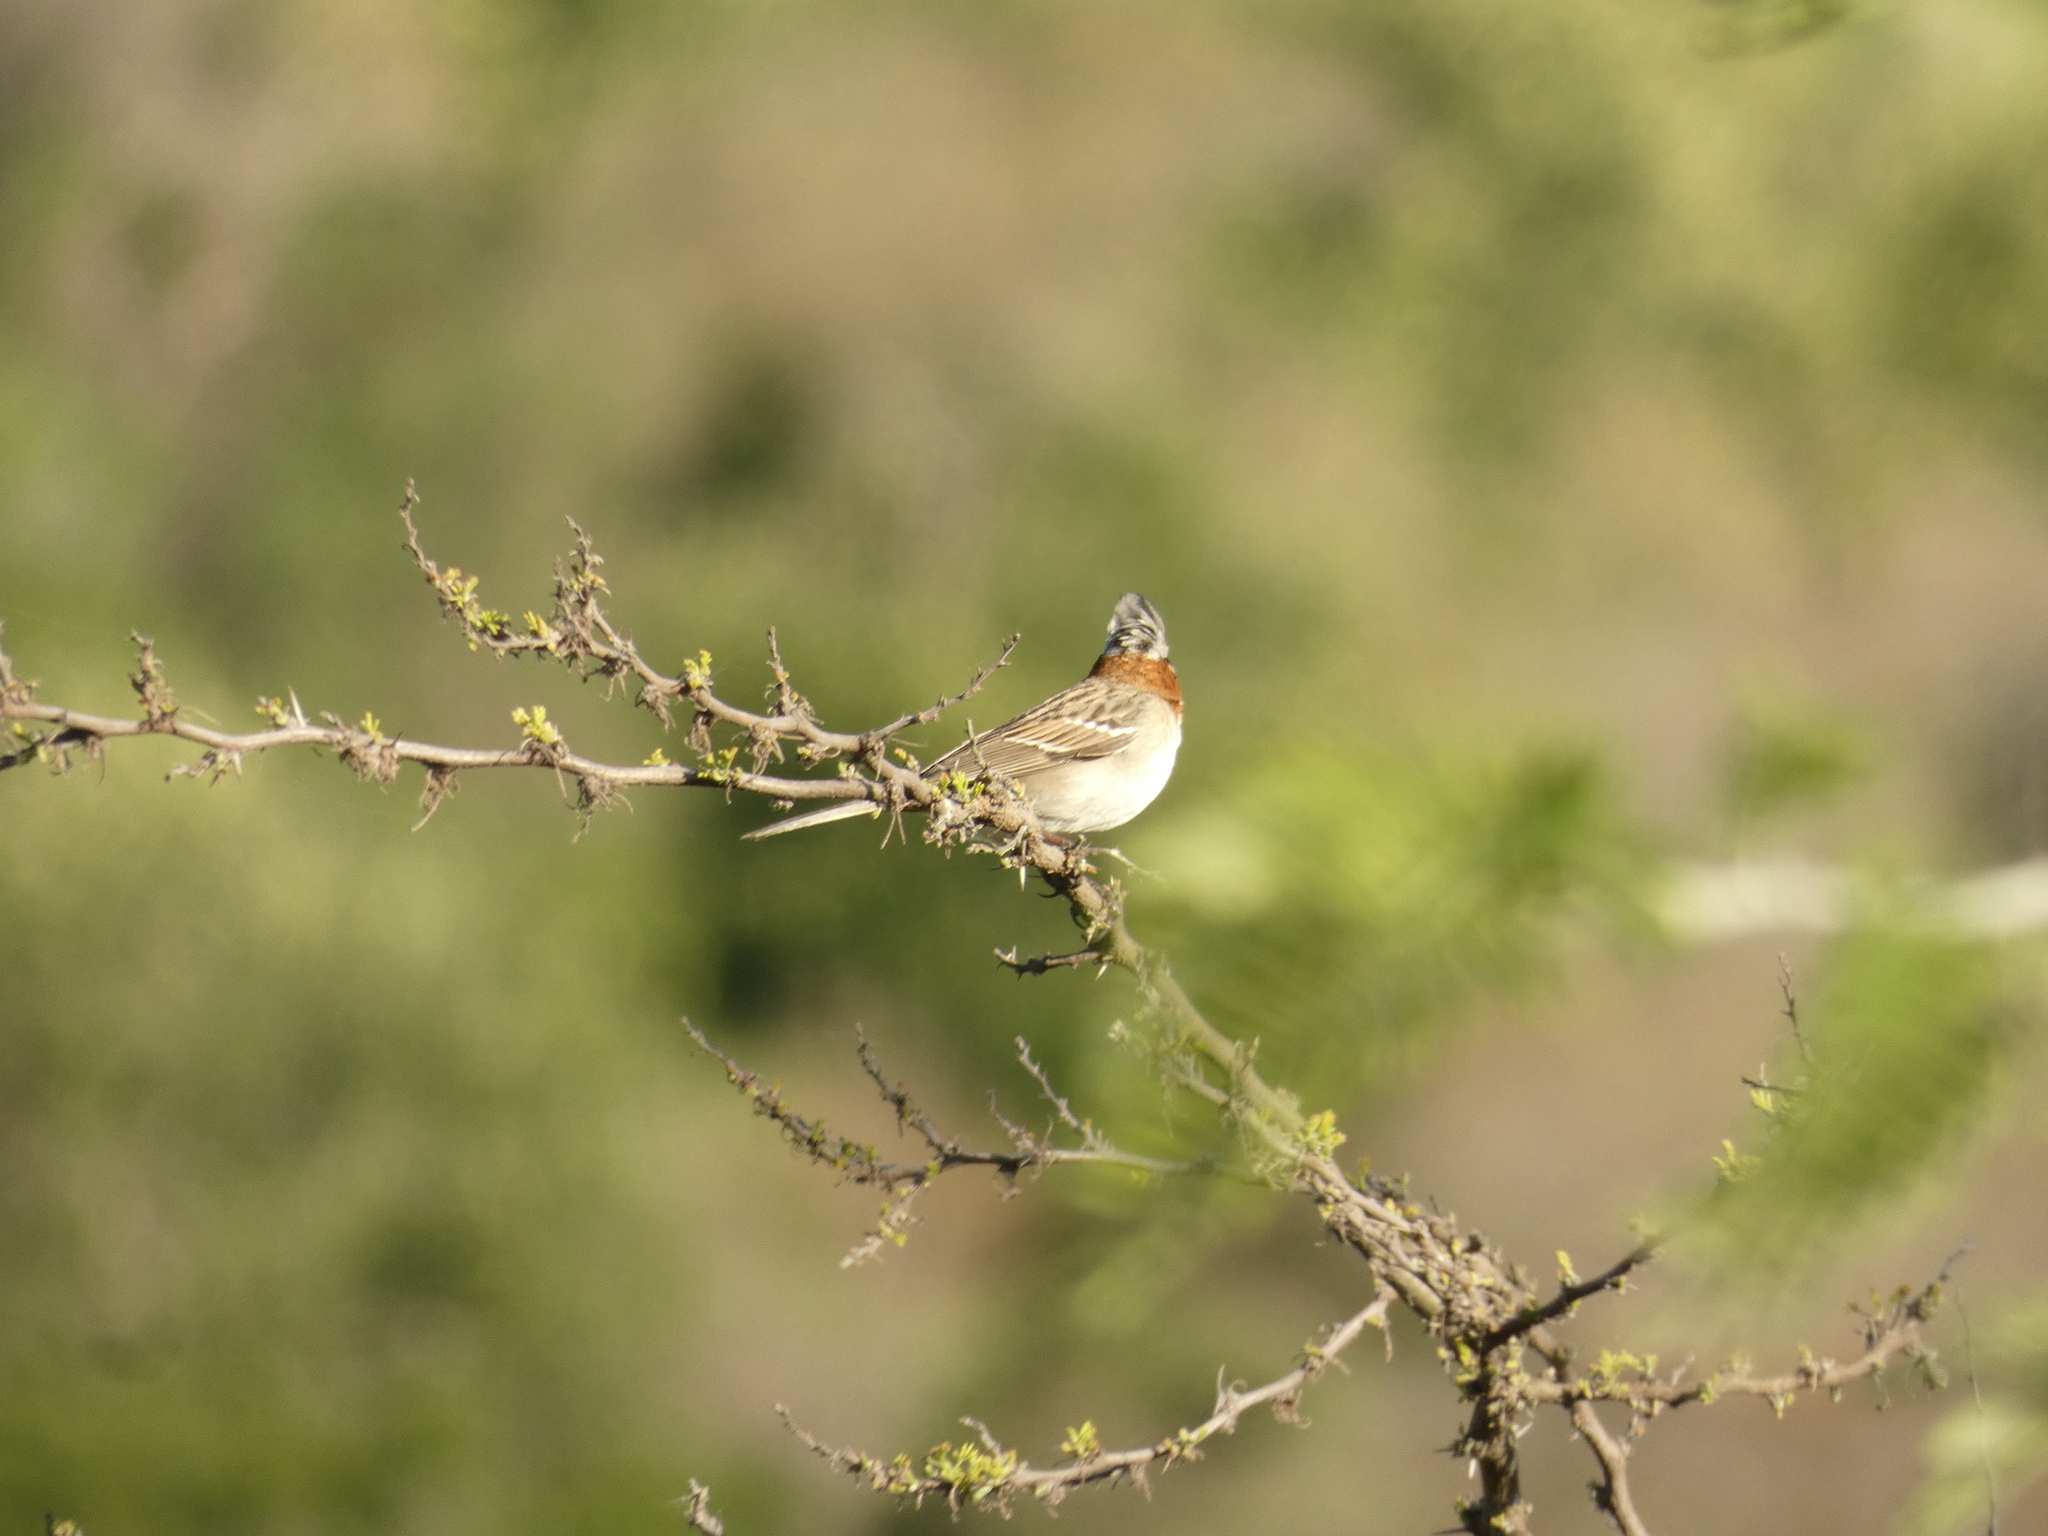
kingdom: Animalia
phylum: Chordata
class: Aves
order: Passeriformes
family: Passerellidae
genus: Zonotrichia
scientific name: Zonotrichia capensis
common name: Rufous-collared sparrow
